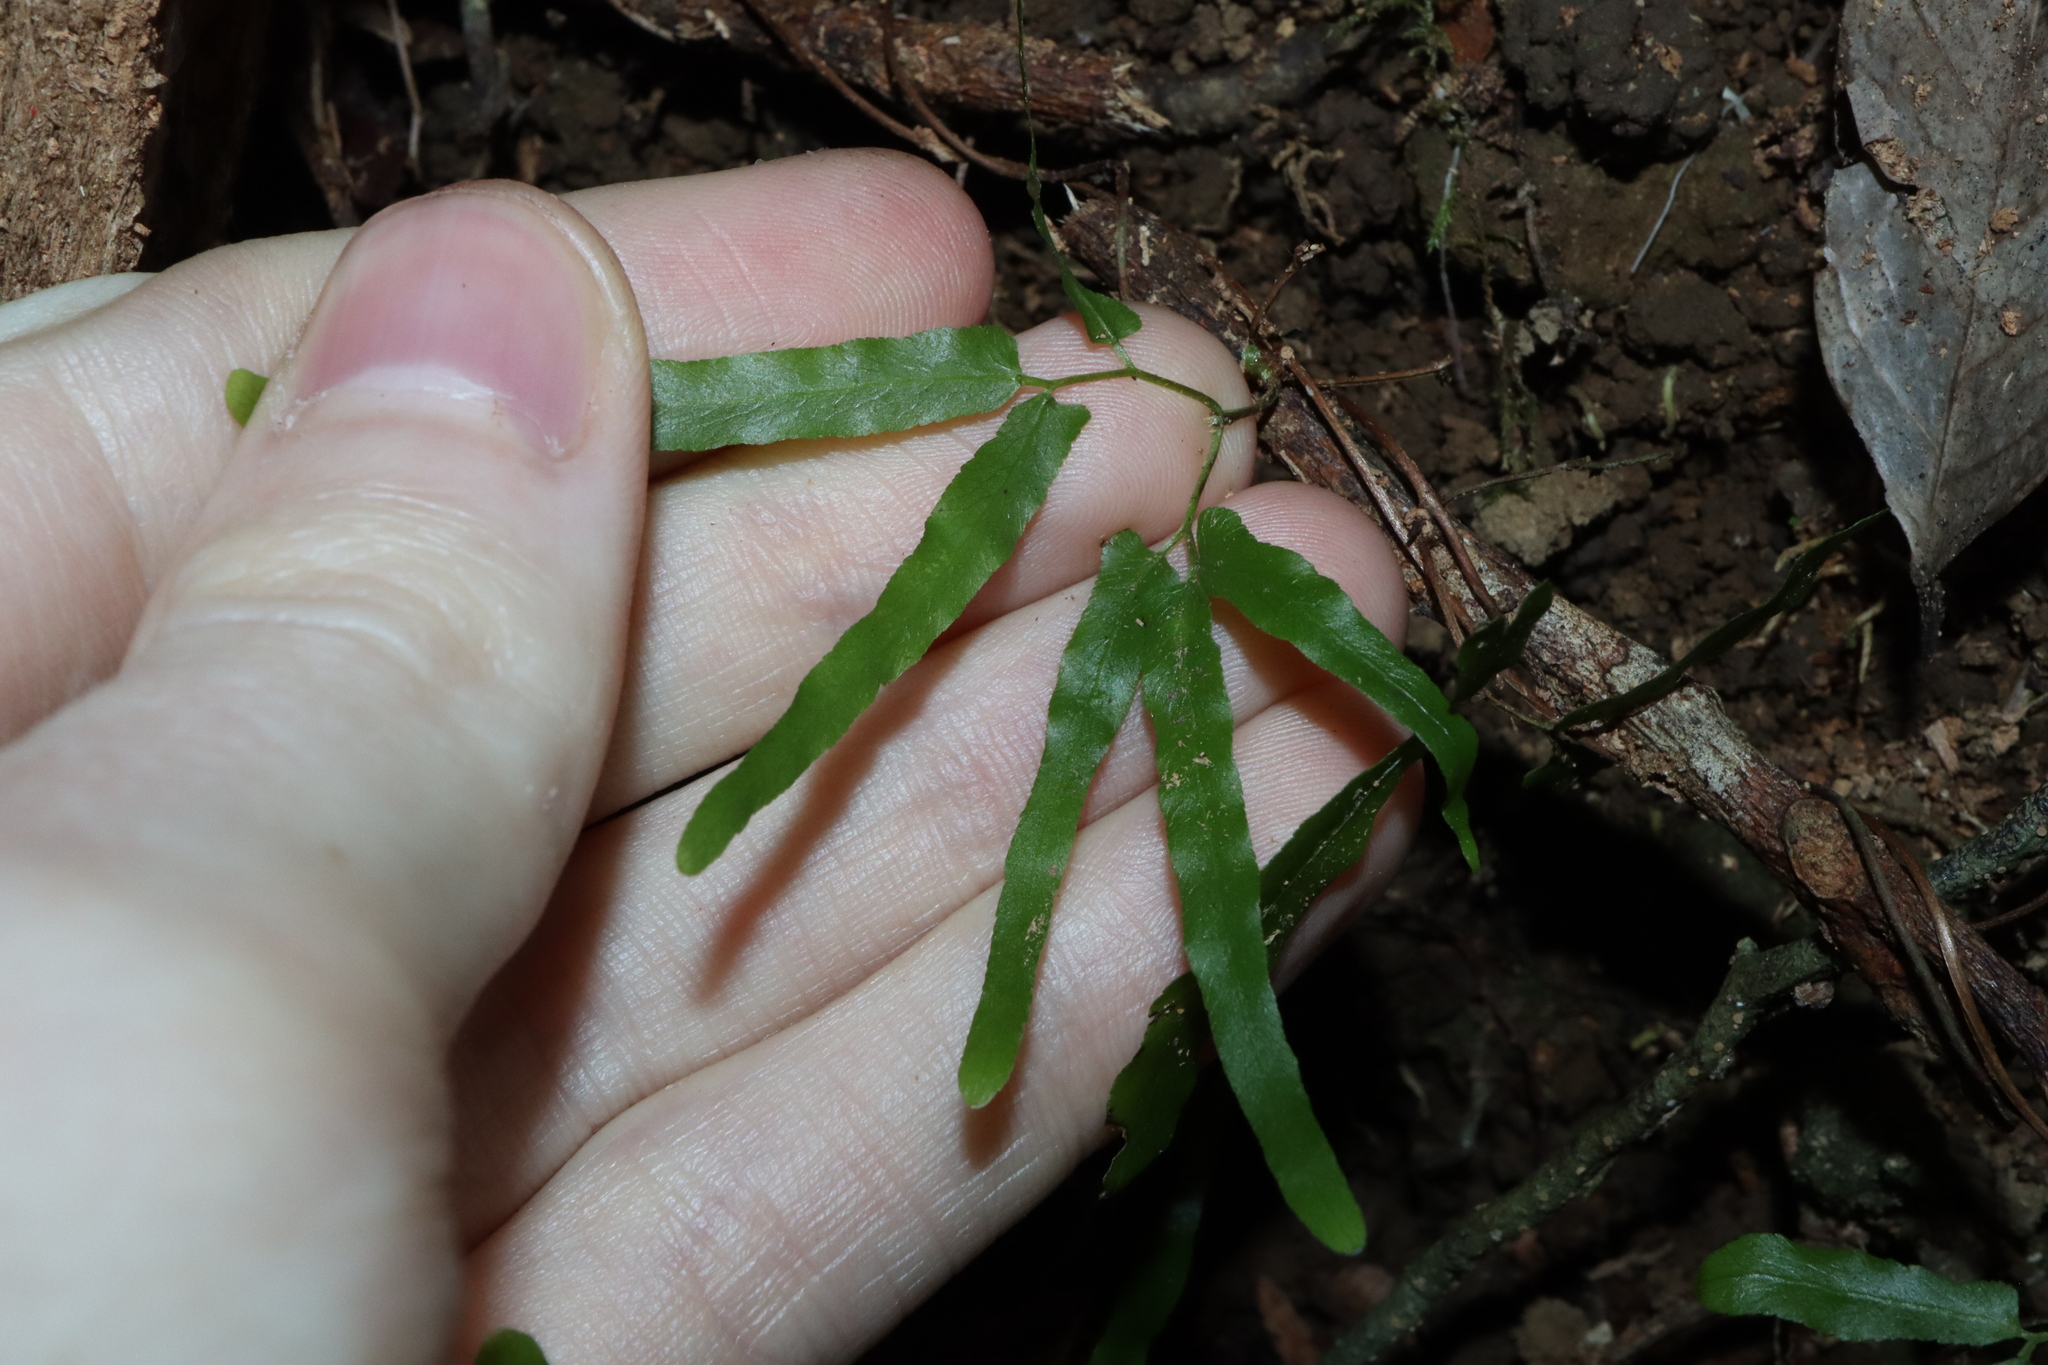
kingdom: Plantae
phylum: Tracheophyta
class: Polypodiopsida
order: Schizaeales
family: Lygodiaceae
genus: Lygodium
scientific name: Lygodium reticulatum
